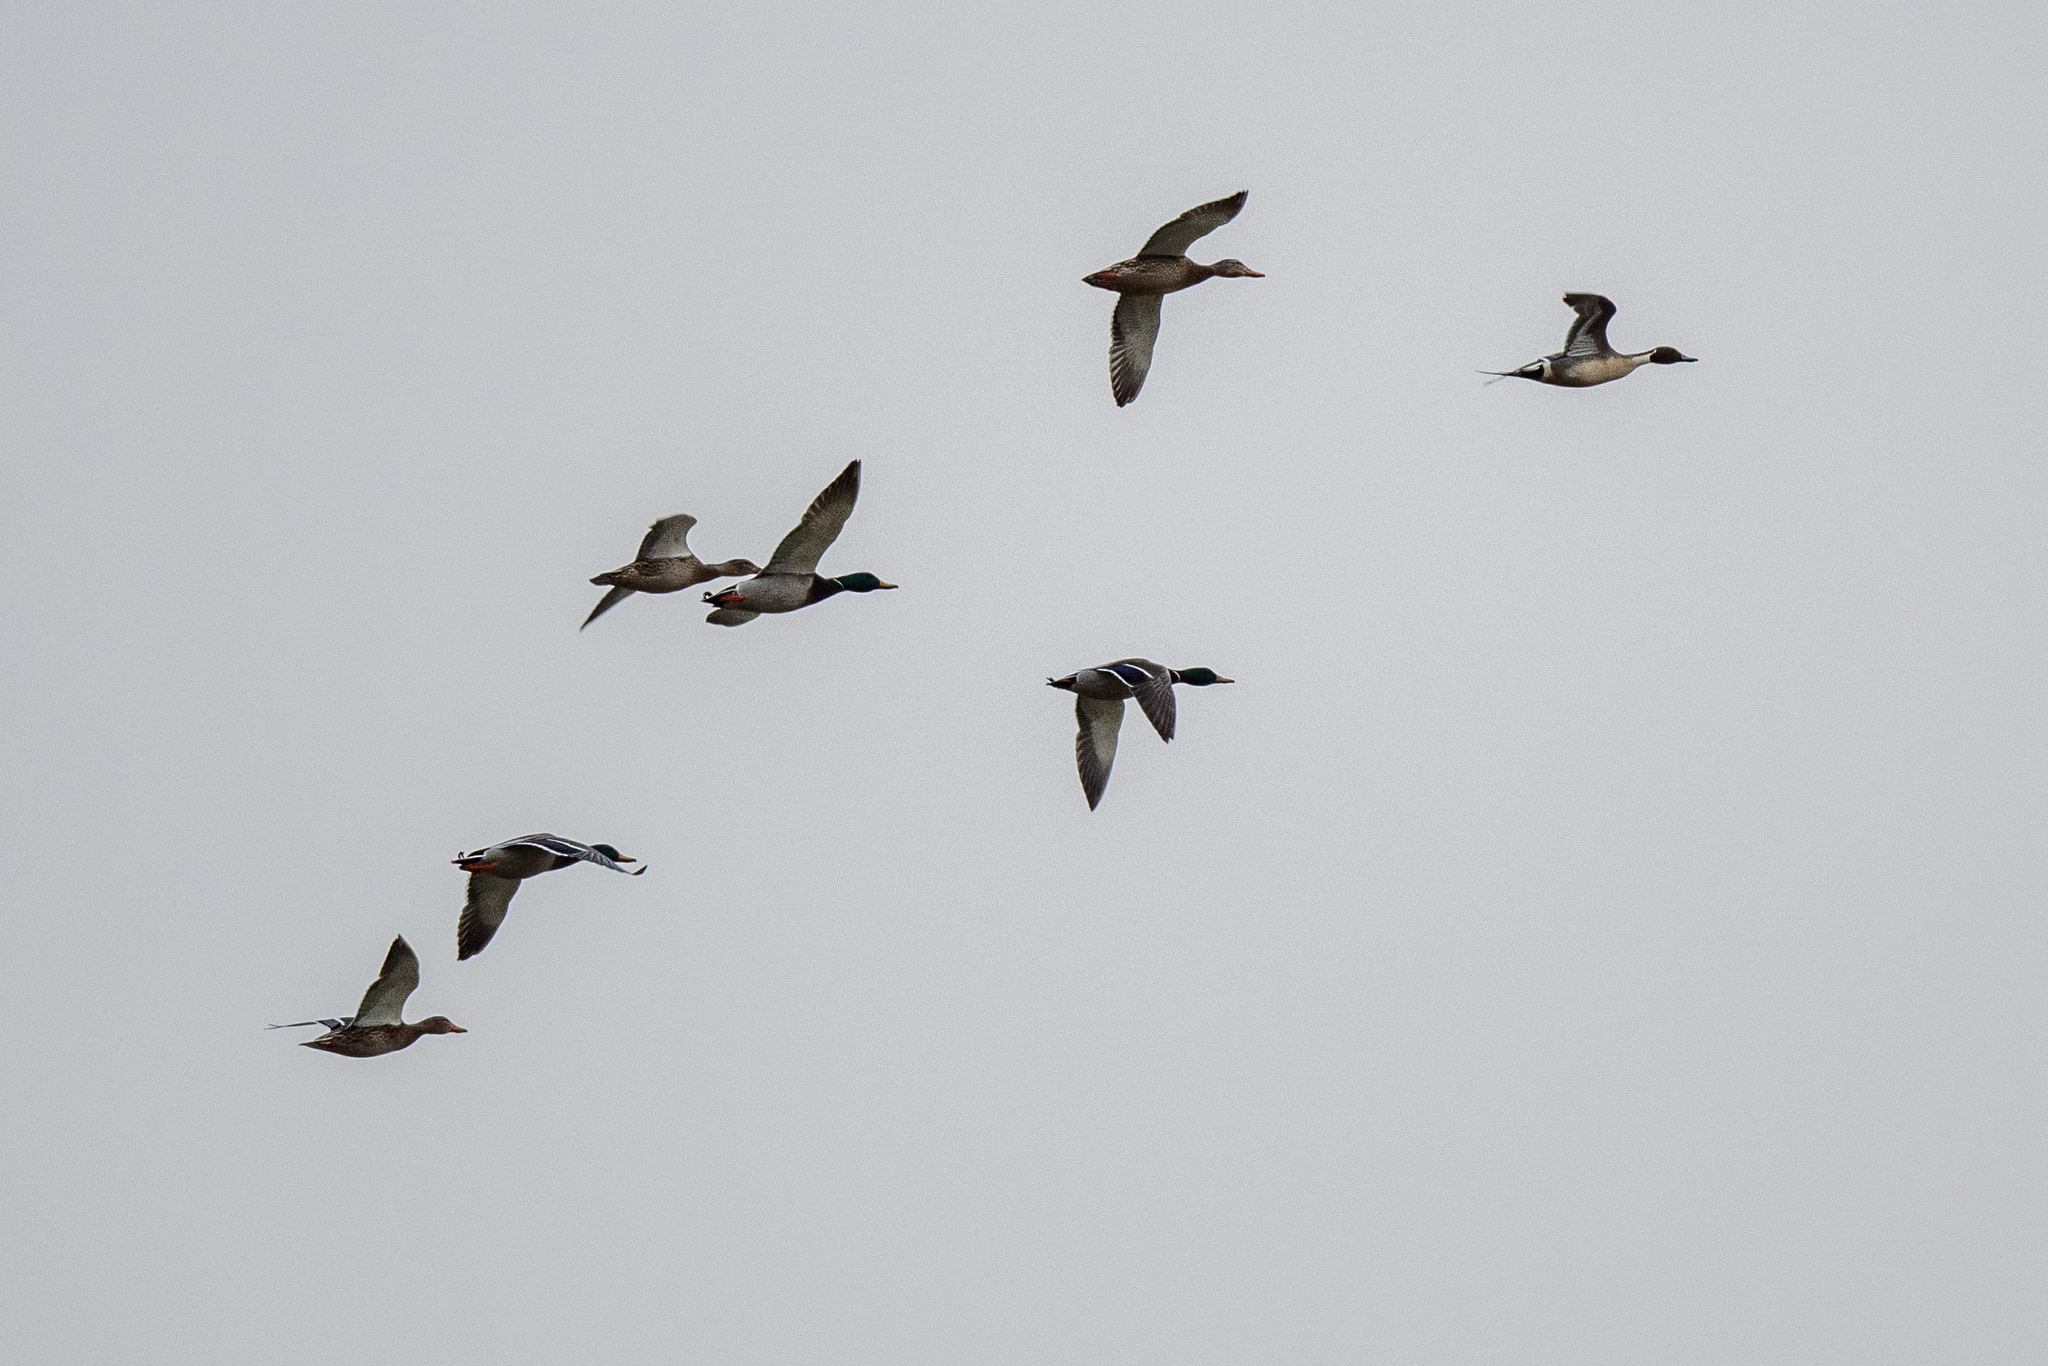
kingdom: Animalia
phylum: Chordata
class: Aves
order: Anseriformes
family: Anatidae
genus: Anas
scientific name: Anas platyrhynchos
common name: Mallard
